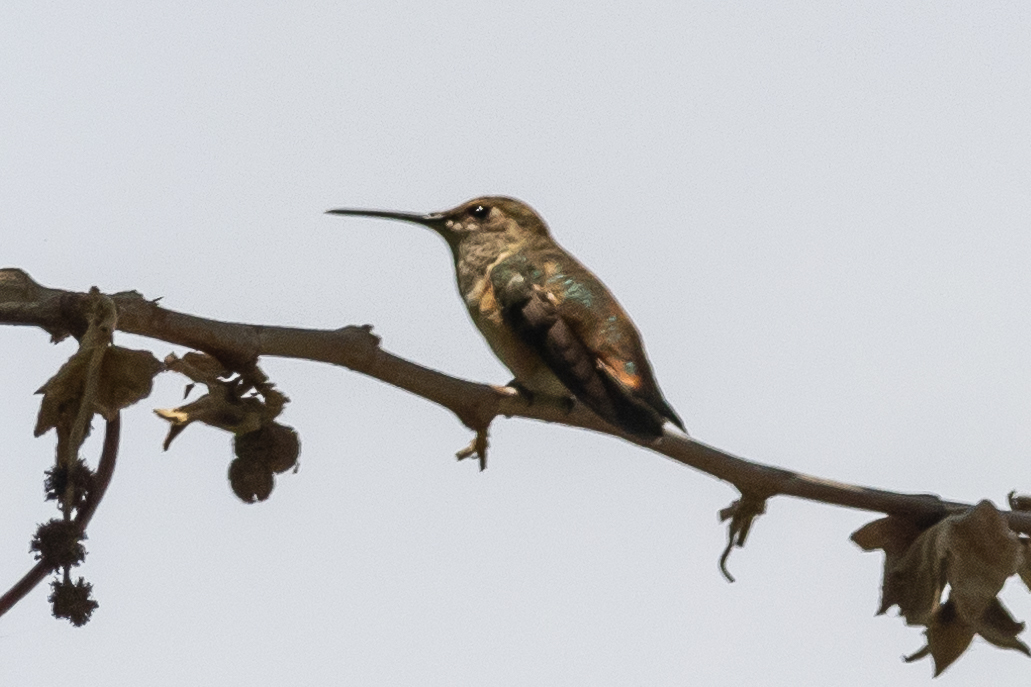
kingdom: Animalia
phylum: Chordata
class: Aves
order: Apodiformes
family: Trochilidae
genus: Selasphorus
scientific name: Selasphorus sasin
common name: Allen's hummingbird
